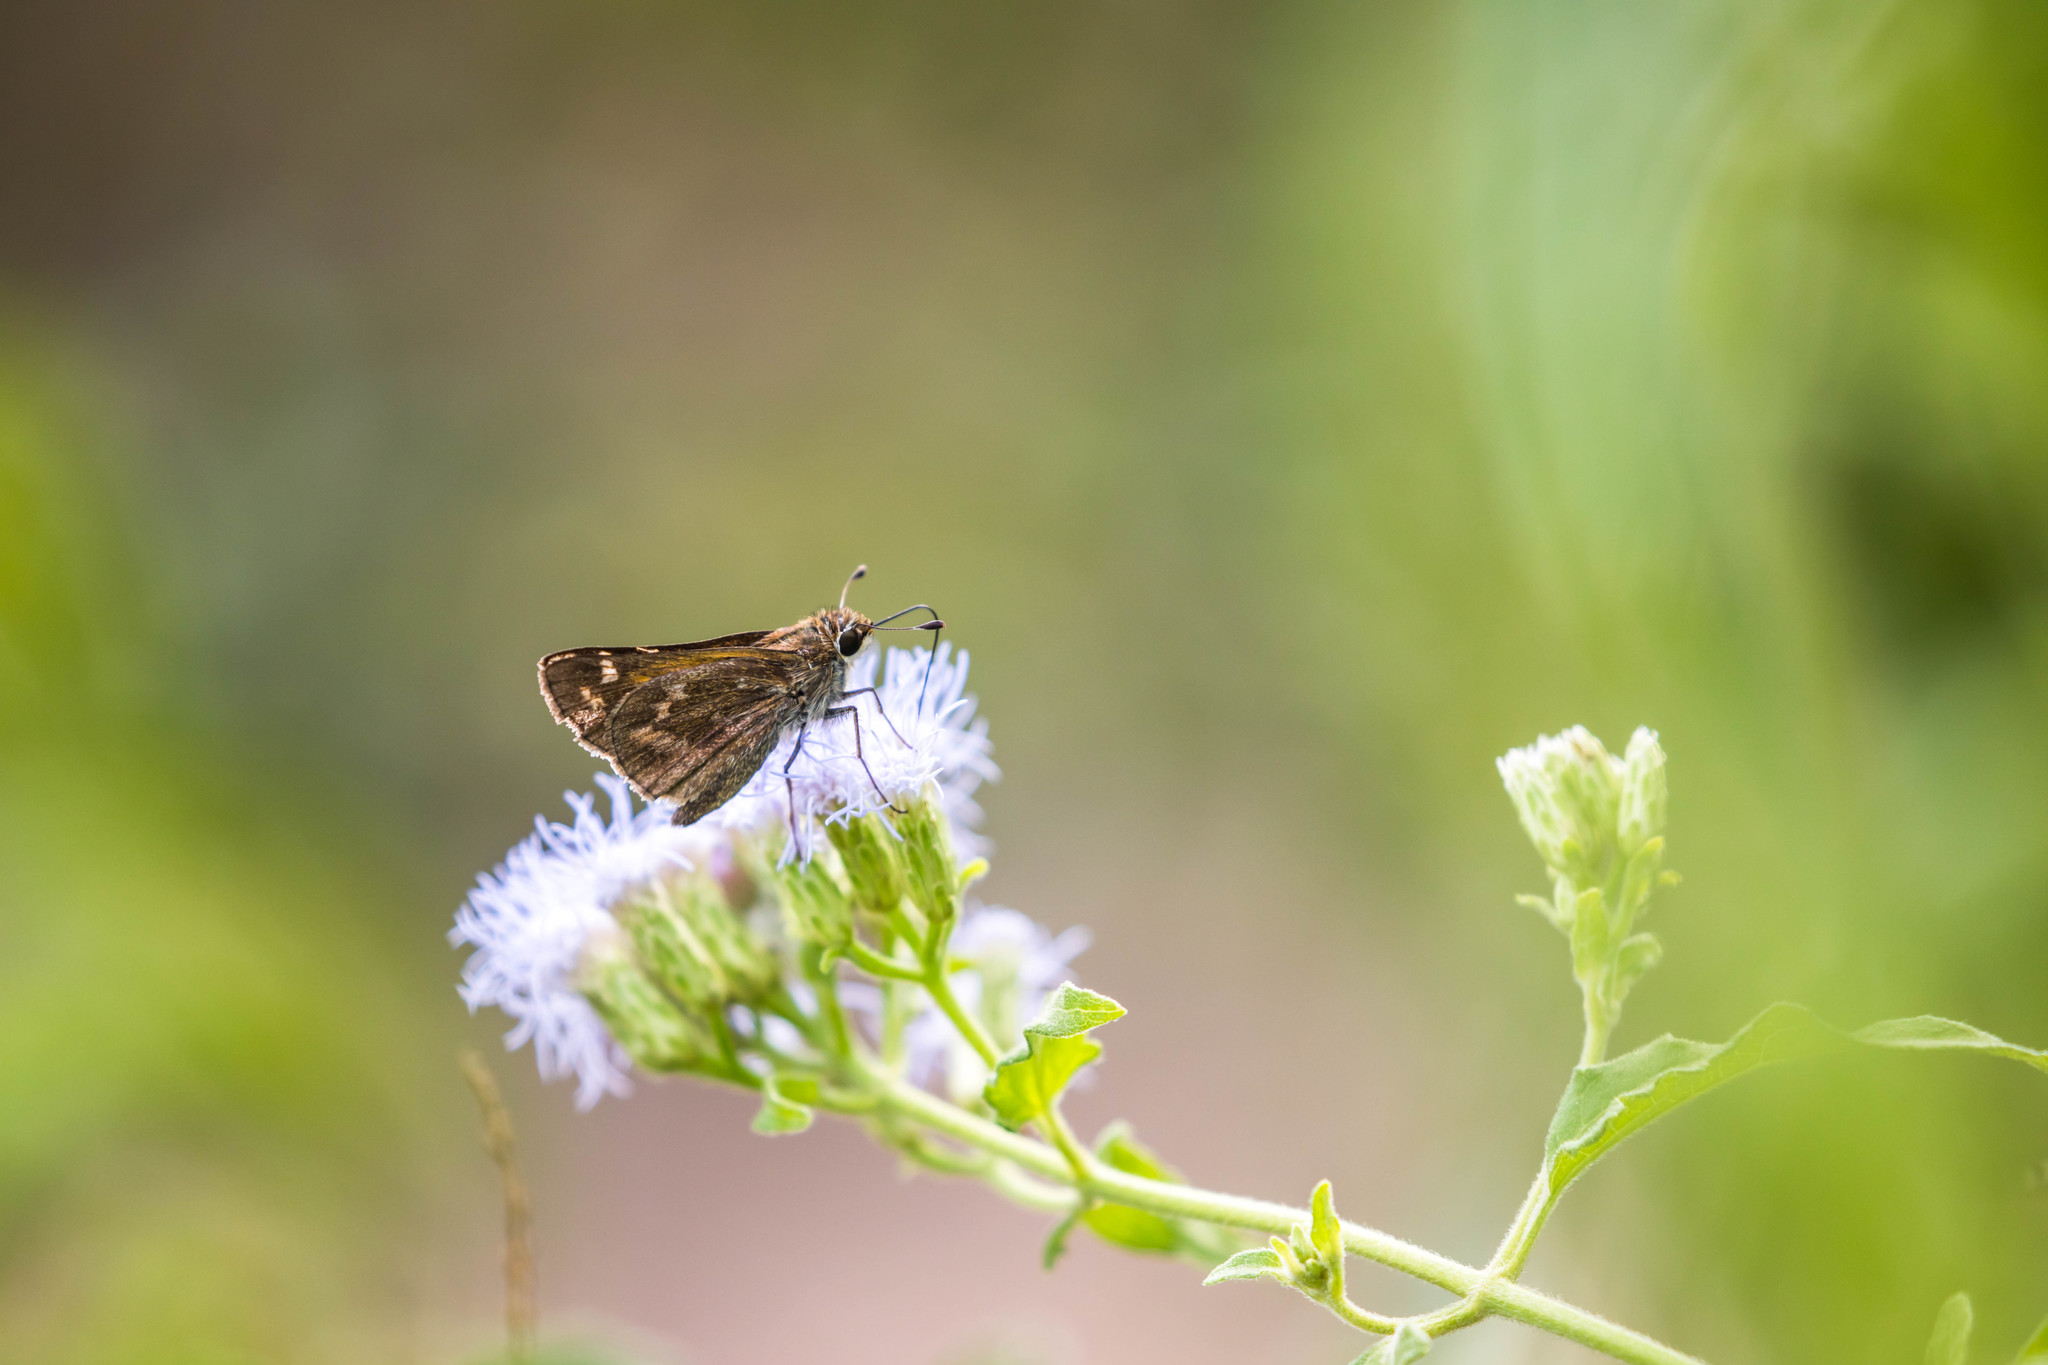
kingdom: Animalia
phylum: Arthropoda
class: Insecta
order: Lepidoptera
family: Hesperiidae
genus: Atalopedes
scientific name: Atalopedes
